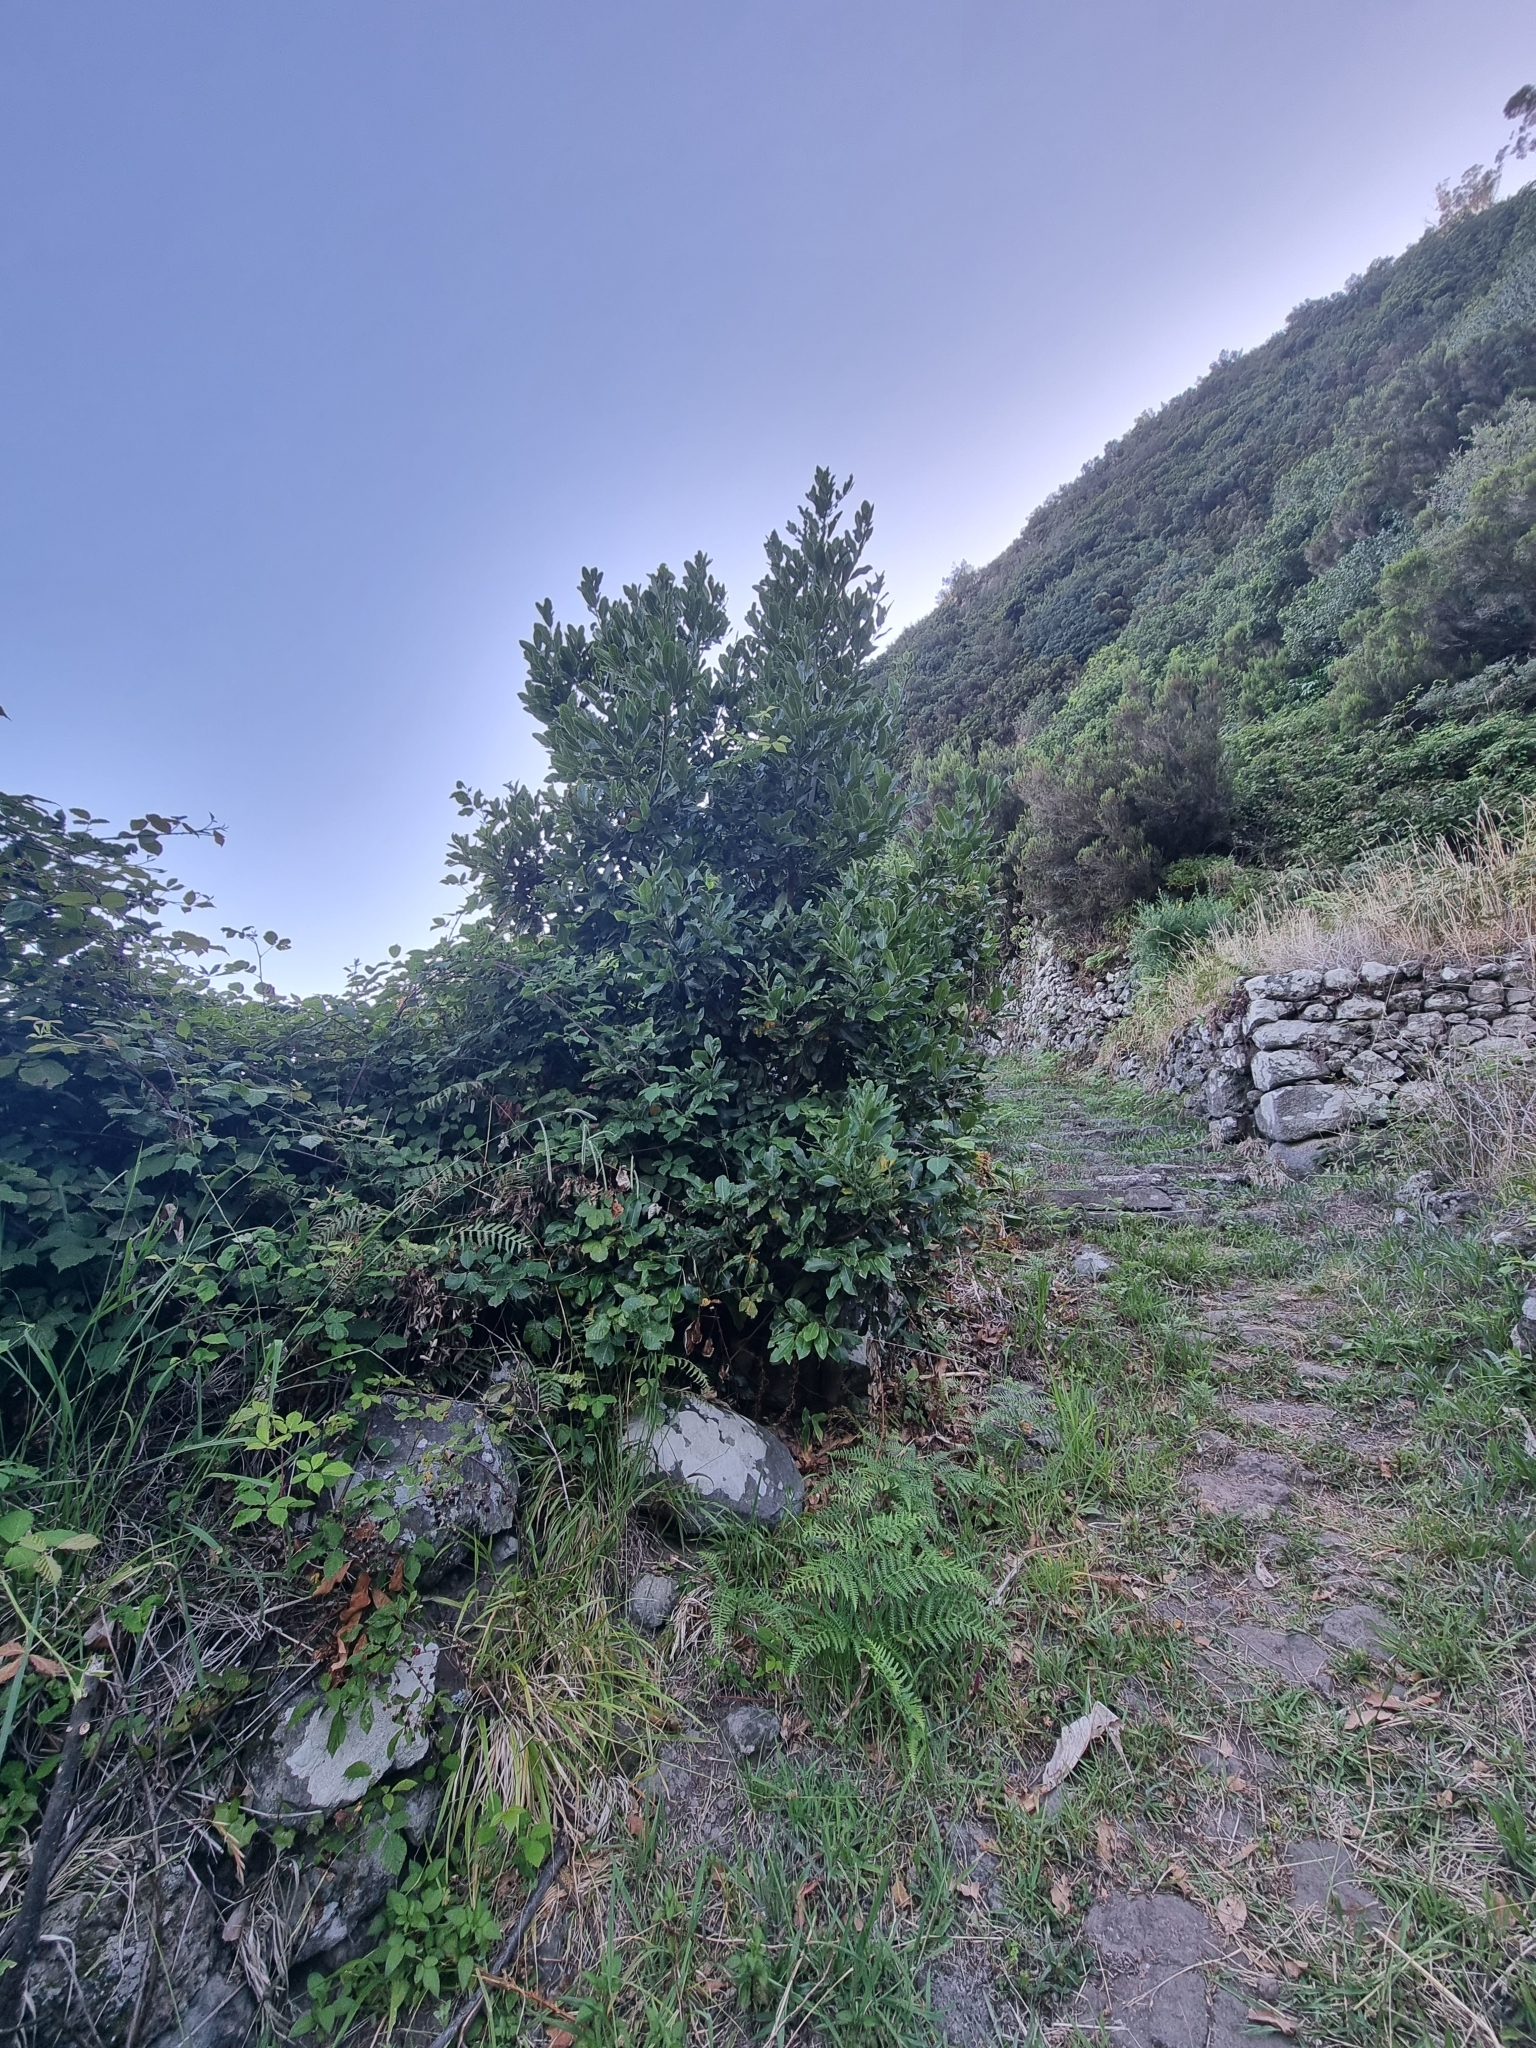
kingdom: Plantae
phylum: Tracheophyta
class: Magnoliopsida
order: Laurales
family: Lauraceae
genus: Laurus
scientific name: Laurus novocanariensis
